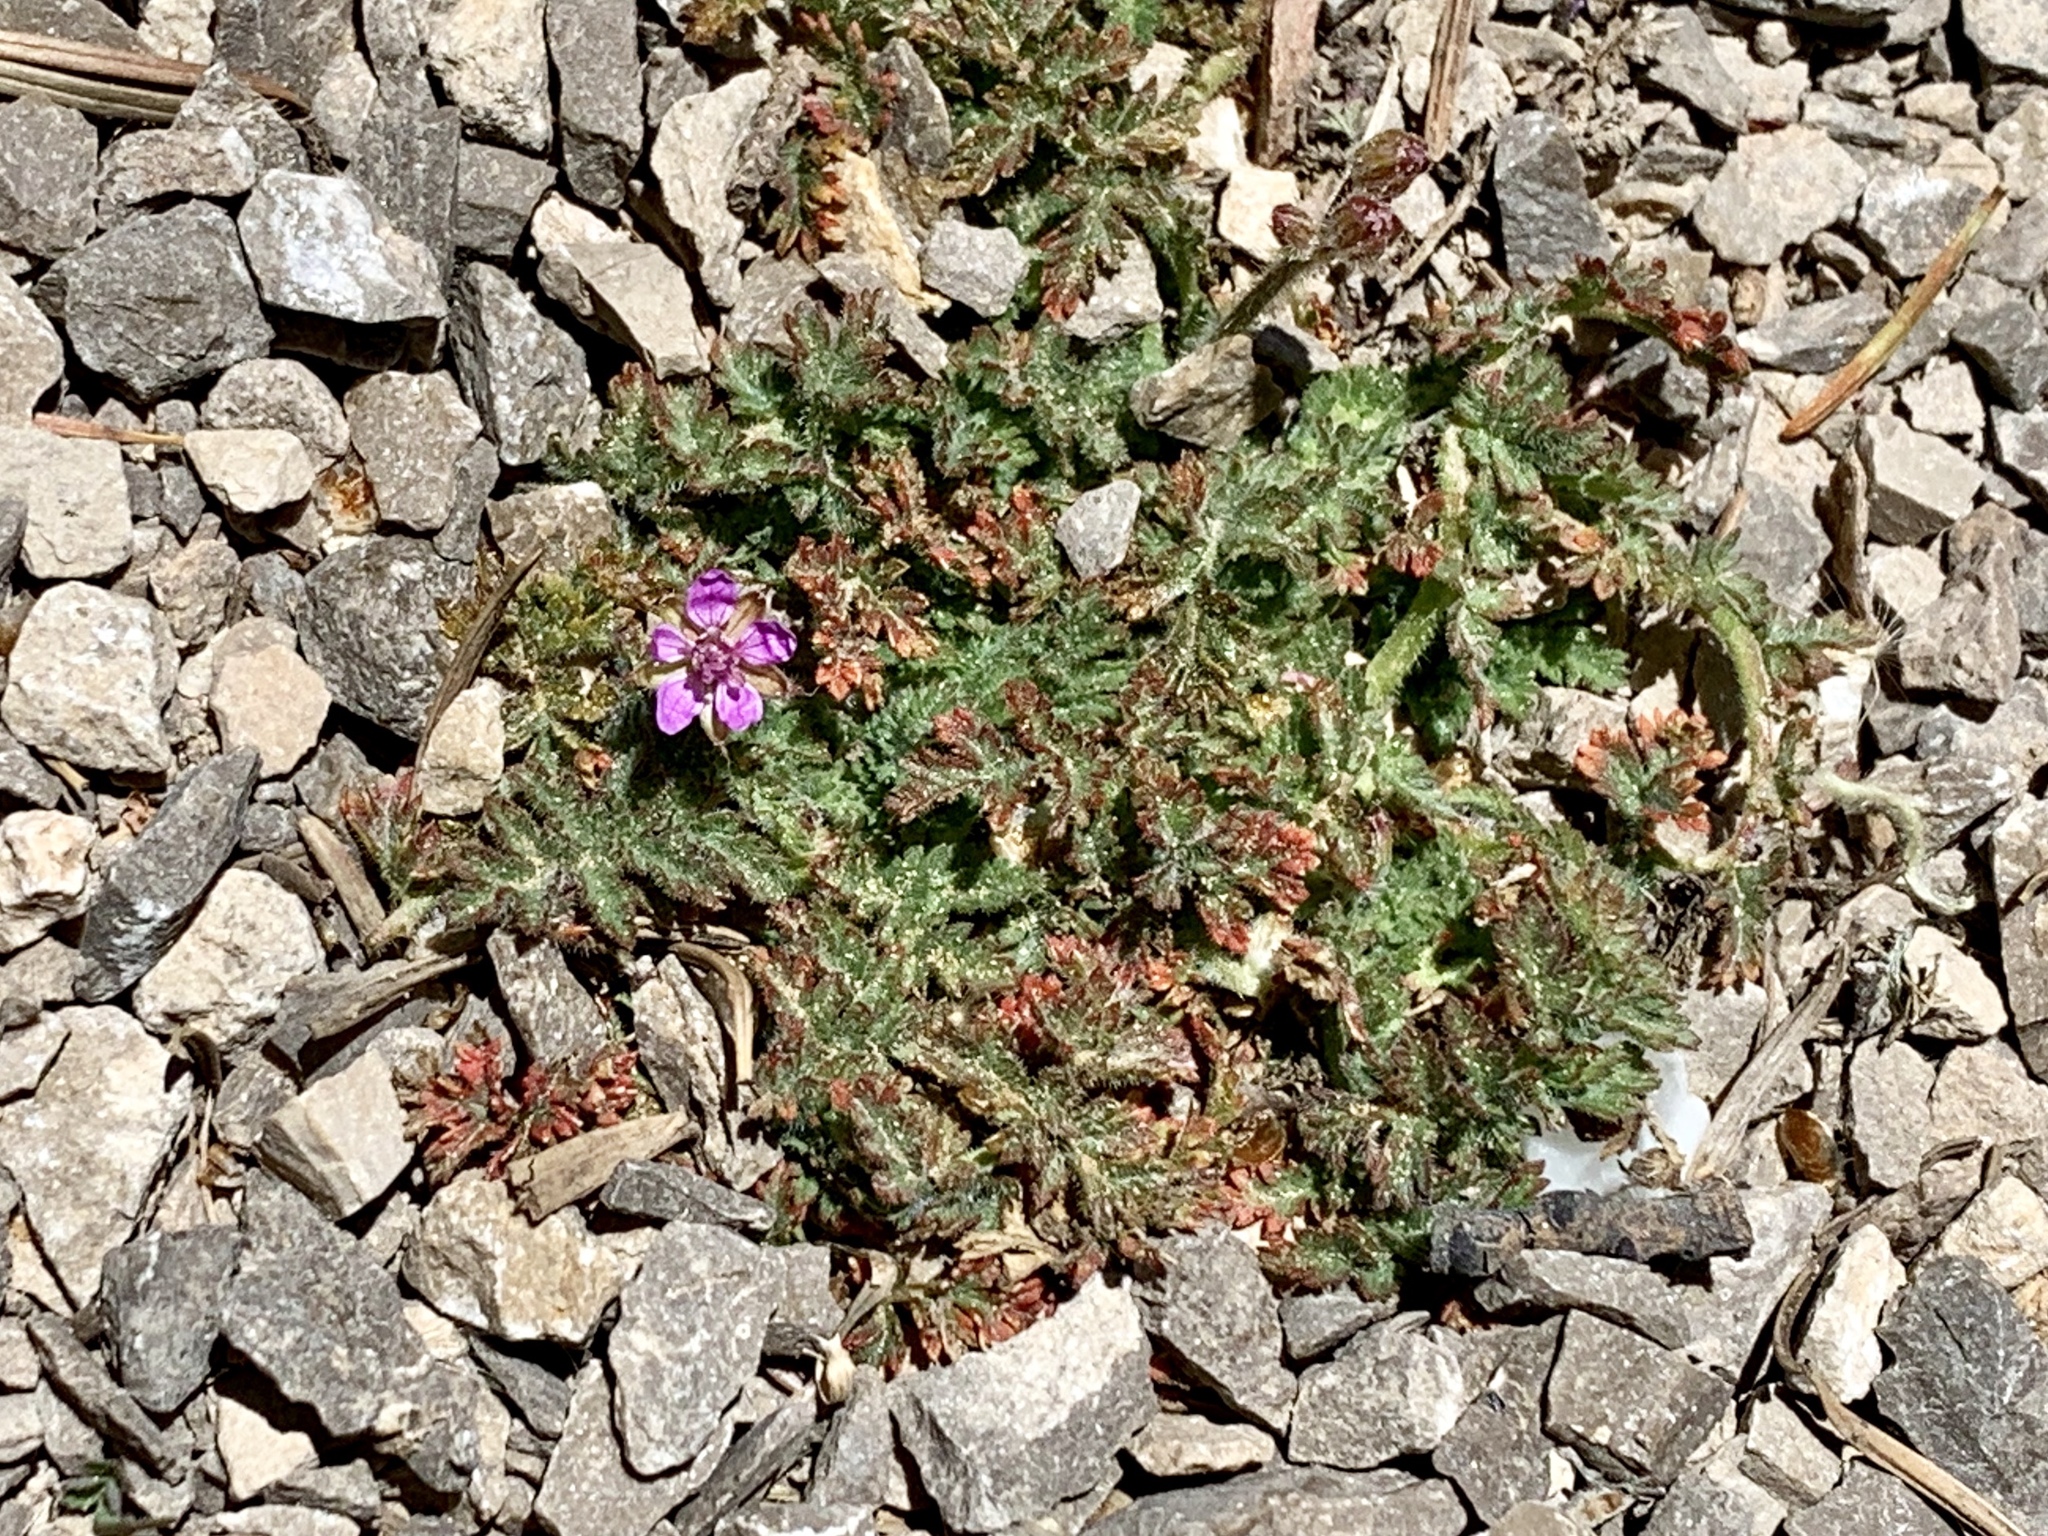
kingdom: Plantae
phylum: Tracheophyta
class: Magnoliopsida
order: Geraniales
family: Geraniaceae
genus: Erodium
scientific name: Erodium cicutarium
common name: Common stork's-bill
